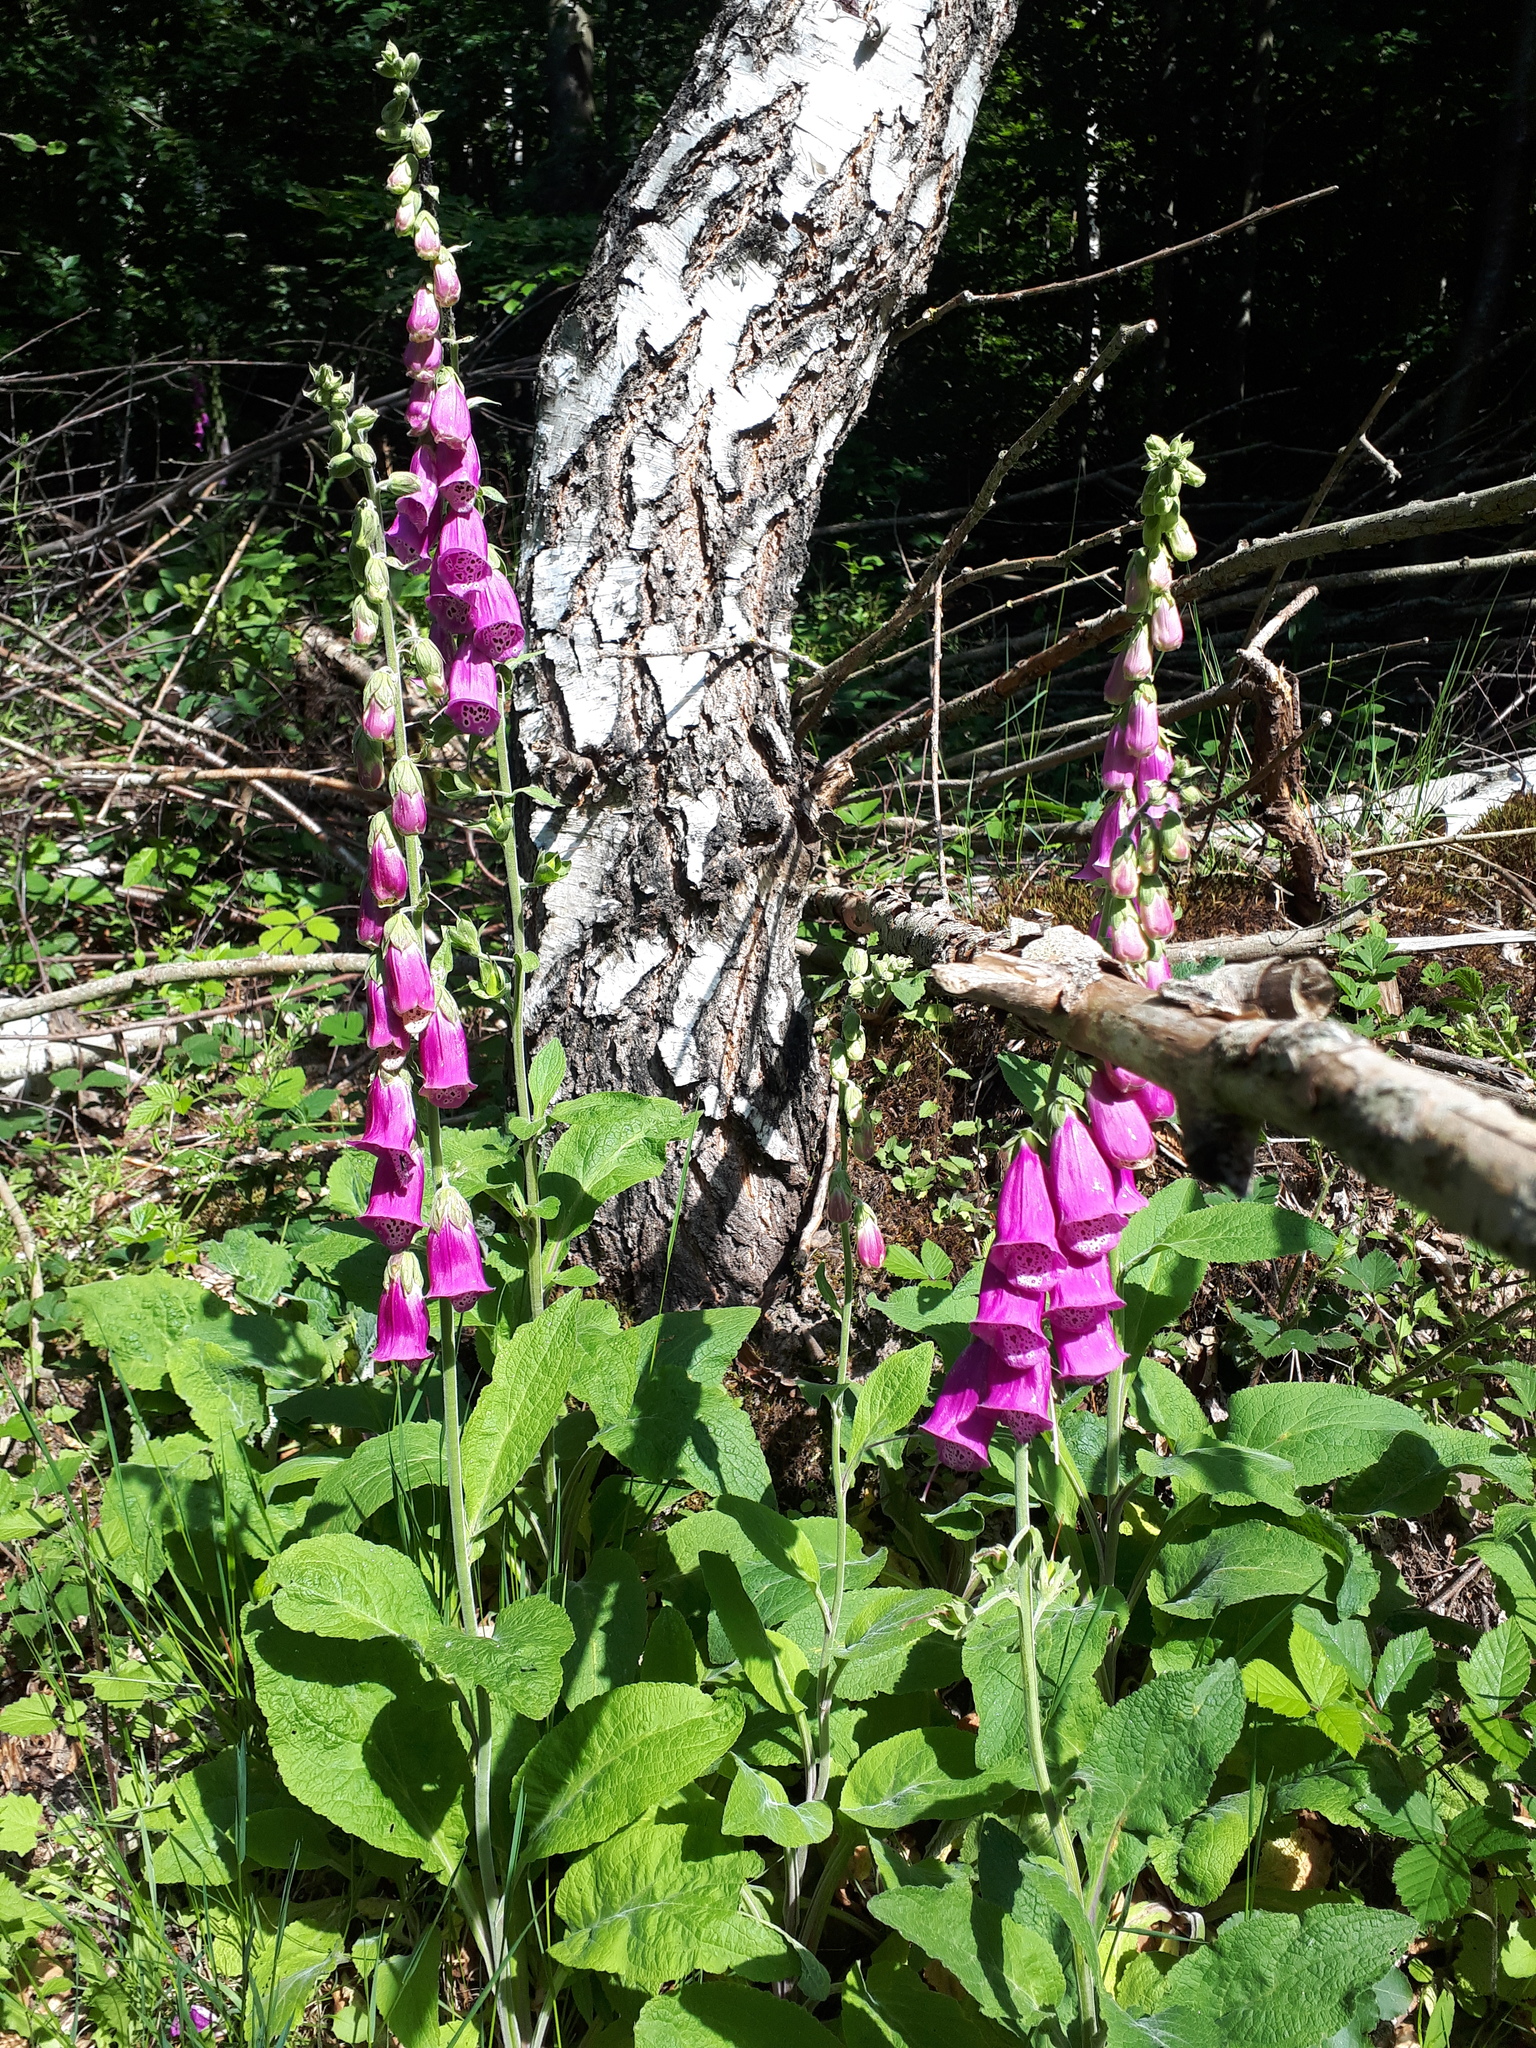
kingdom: Plantae
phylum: Tracheophyta
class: Magnoliopsida
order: Lamiales
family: Plantaginaceae
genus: Digitalis
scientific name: Digitalis purpurea
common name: Foxglove
